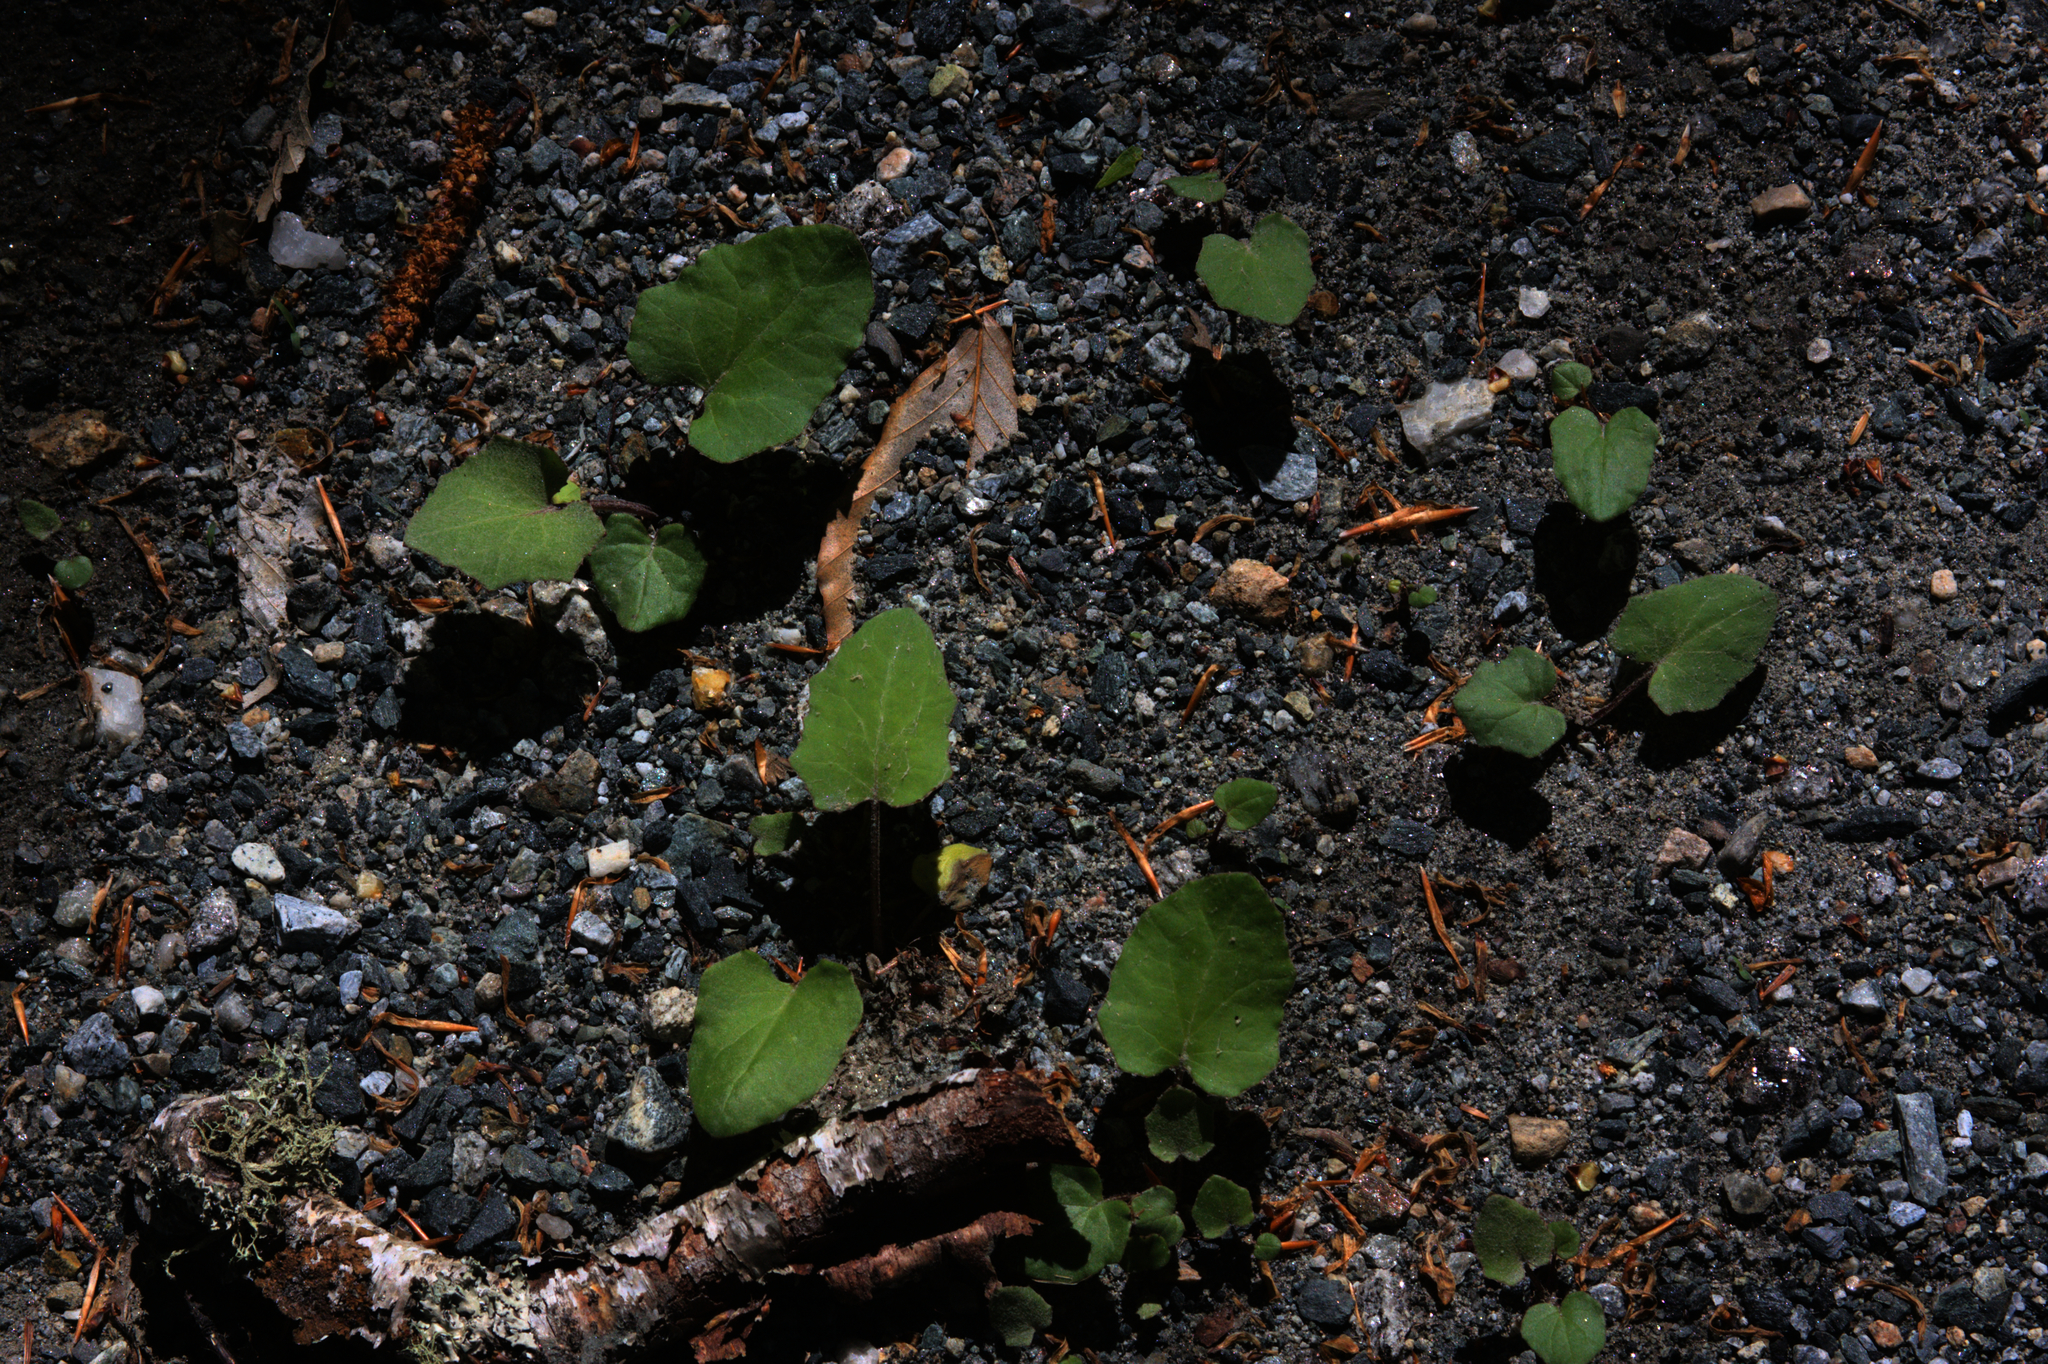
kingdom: Plantae
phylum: Tracheophyta
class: Magnoliopsida
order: Asterales
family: Asteraceae
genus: Tussilago
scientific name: Tussilago farfara
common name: Coltsfoot
